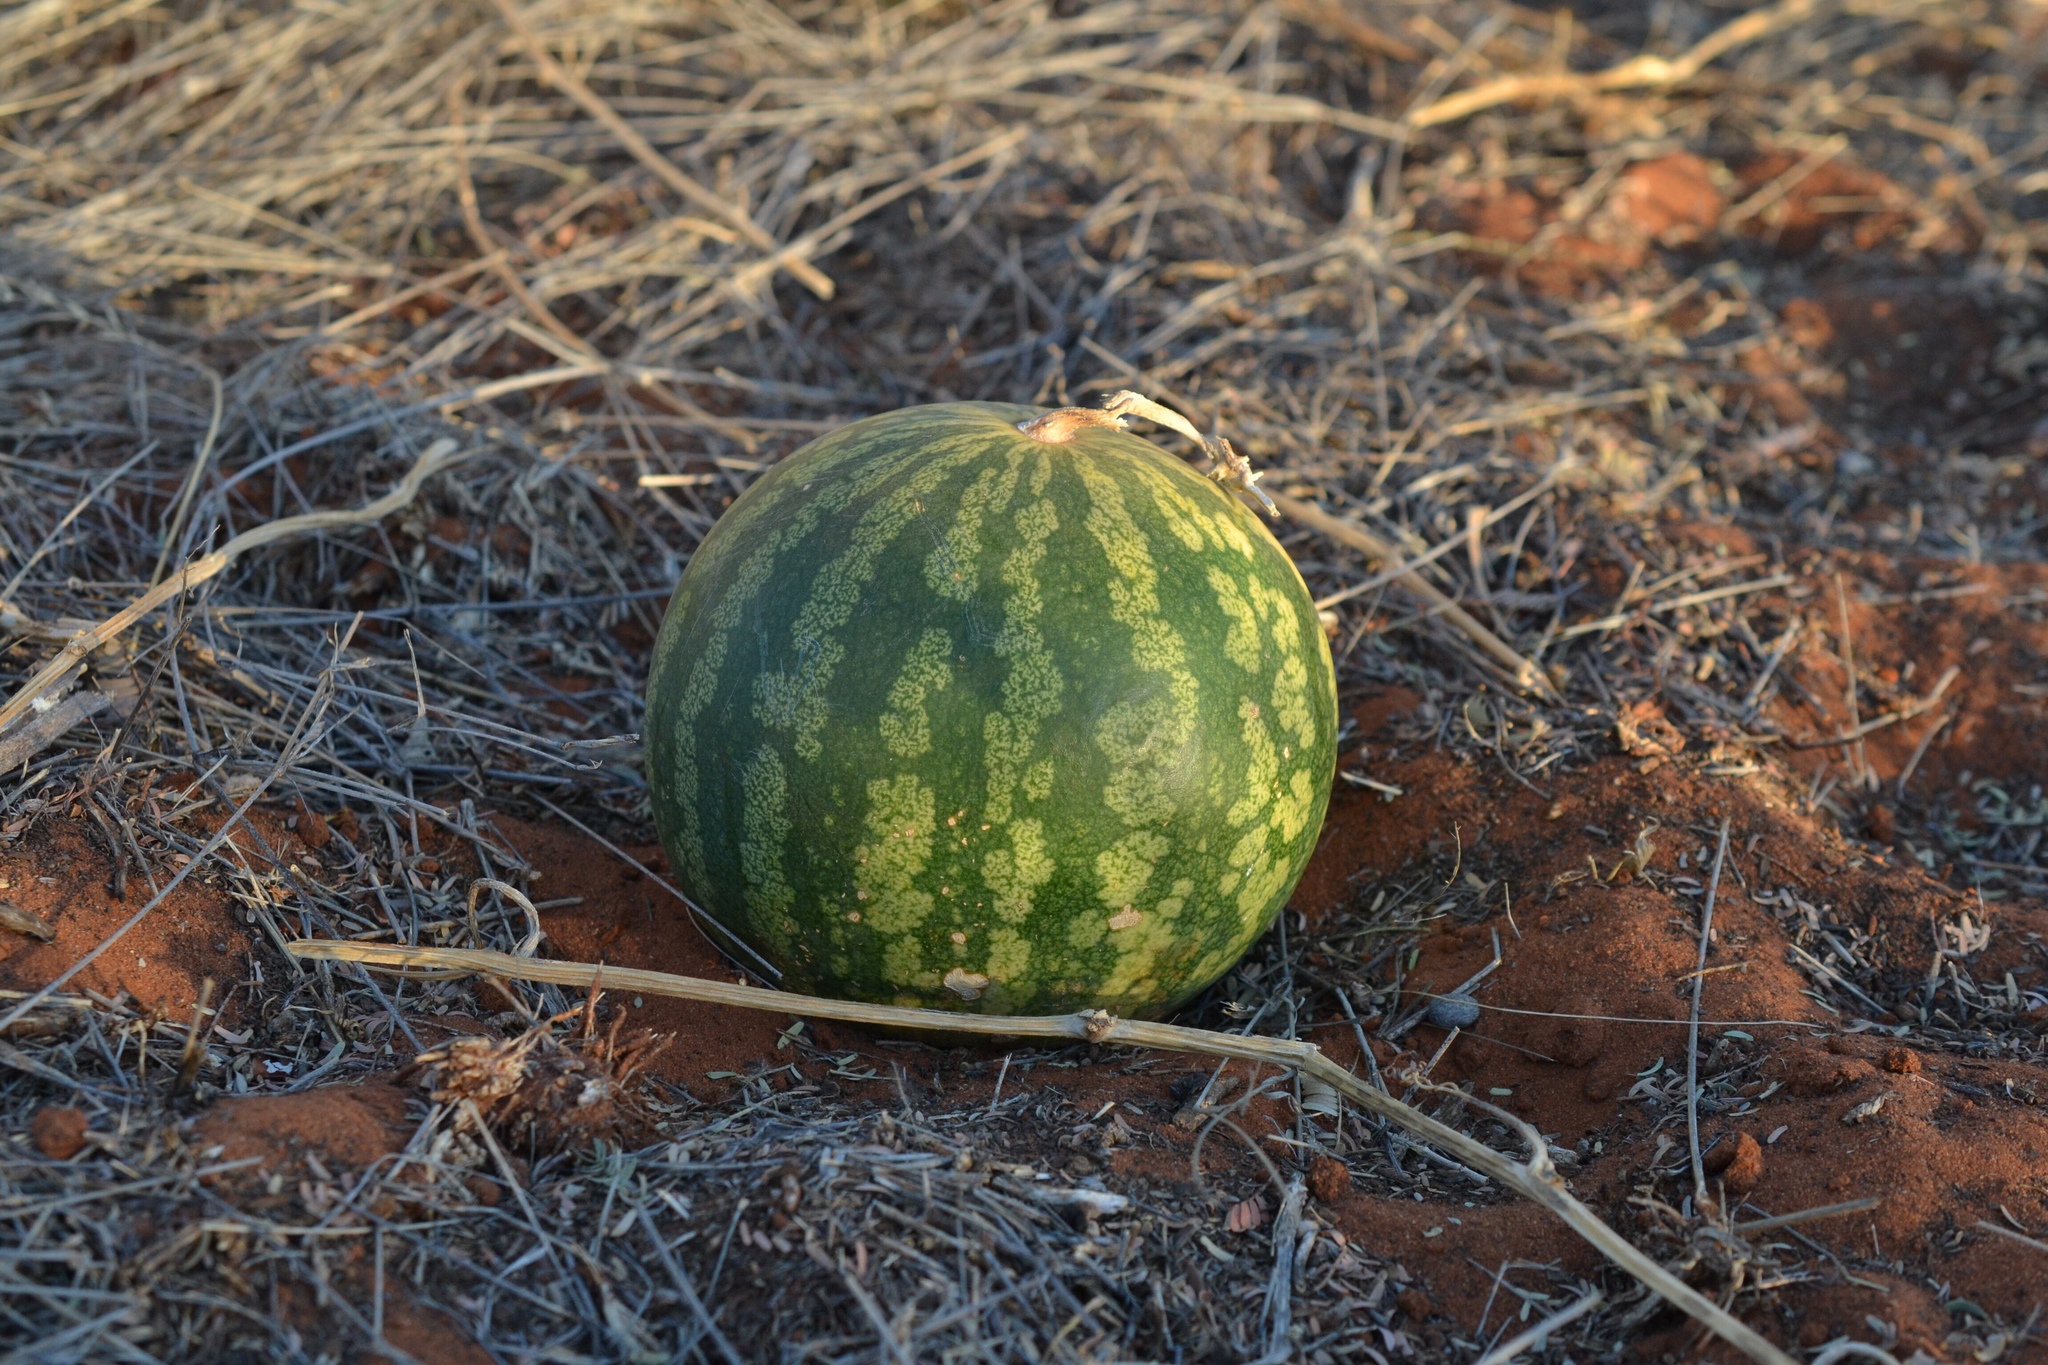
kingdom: Plantae
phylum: Tracheophyta
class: Magnoliopsida
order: Cucurbitales
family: Cucurbitaceae
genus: Citrullus
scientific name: Citrullus amarus
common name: Fodder-melon
